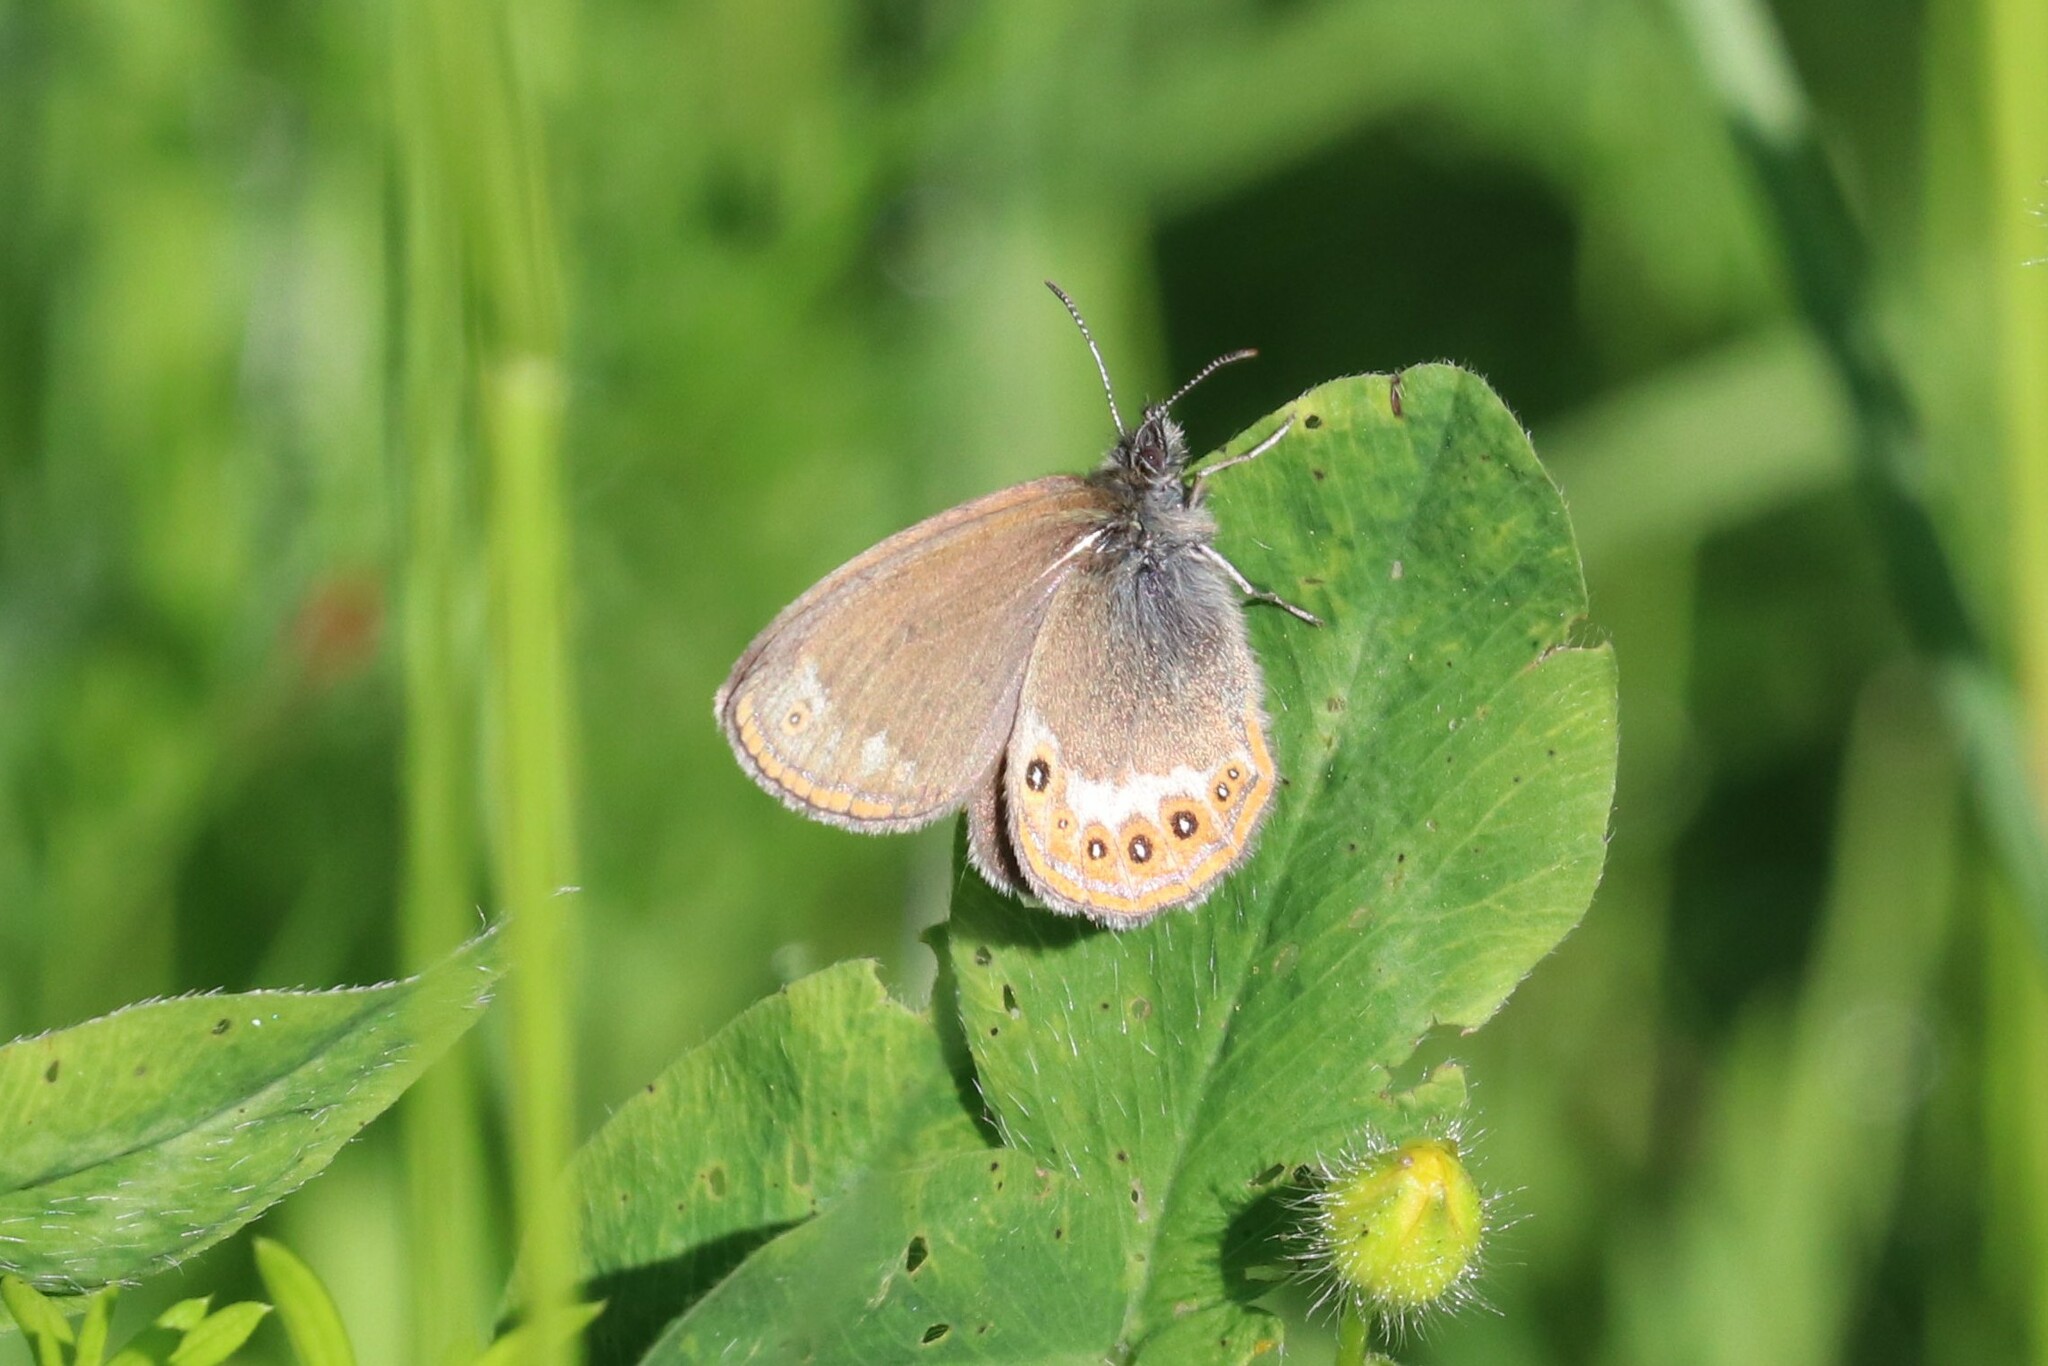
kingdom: Animalia
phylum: Arthropoda
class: Insecta
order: Lepidoptera
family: Nymphalidae
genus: Coenonympha
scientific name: Coenonympha hero
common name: Scarce heath
